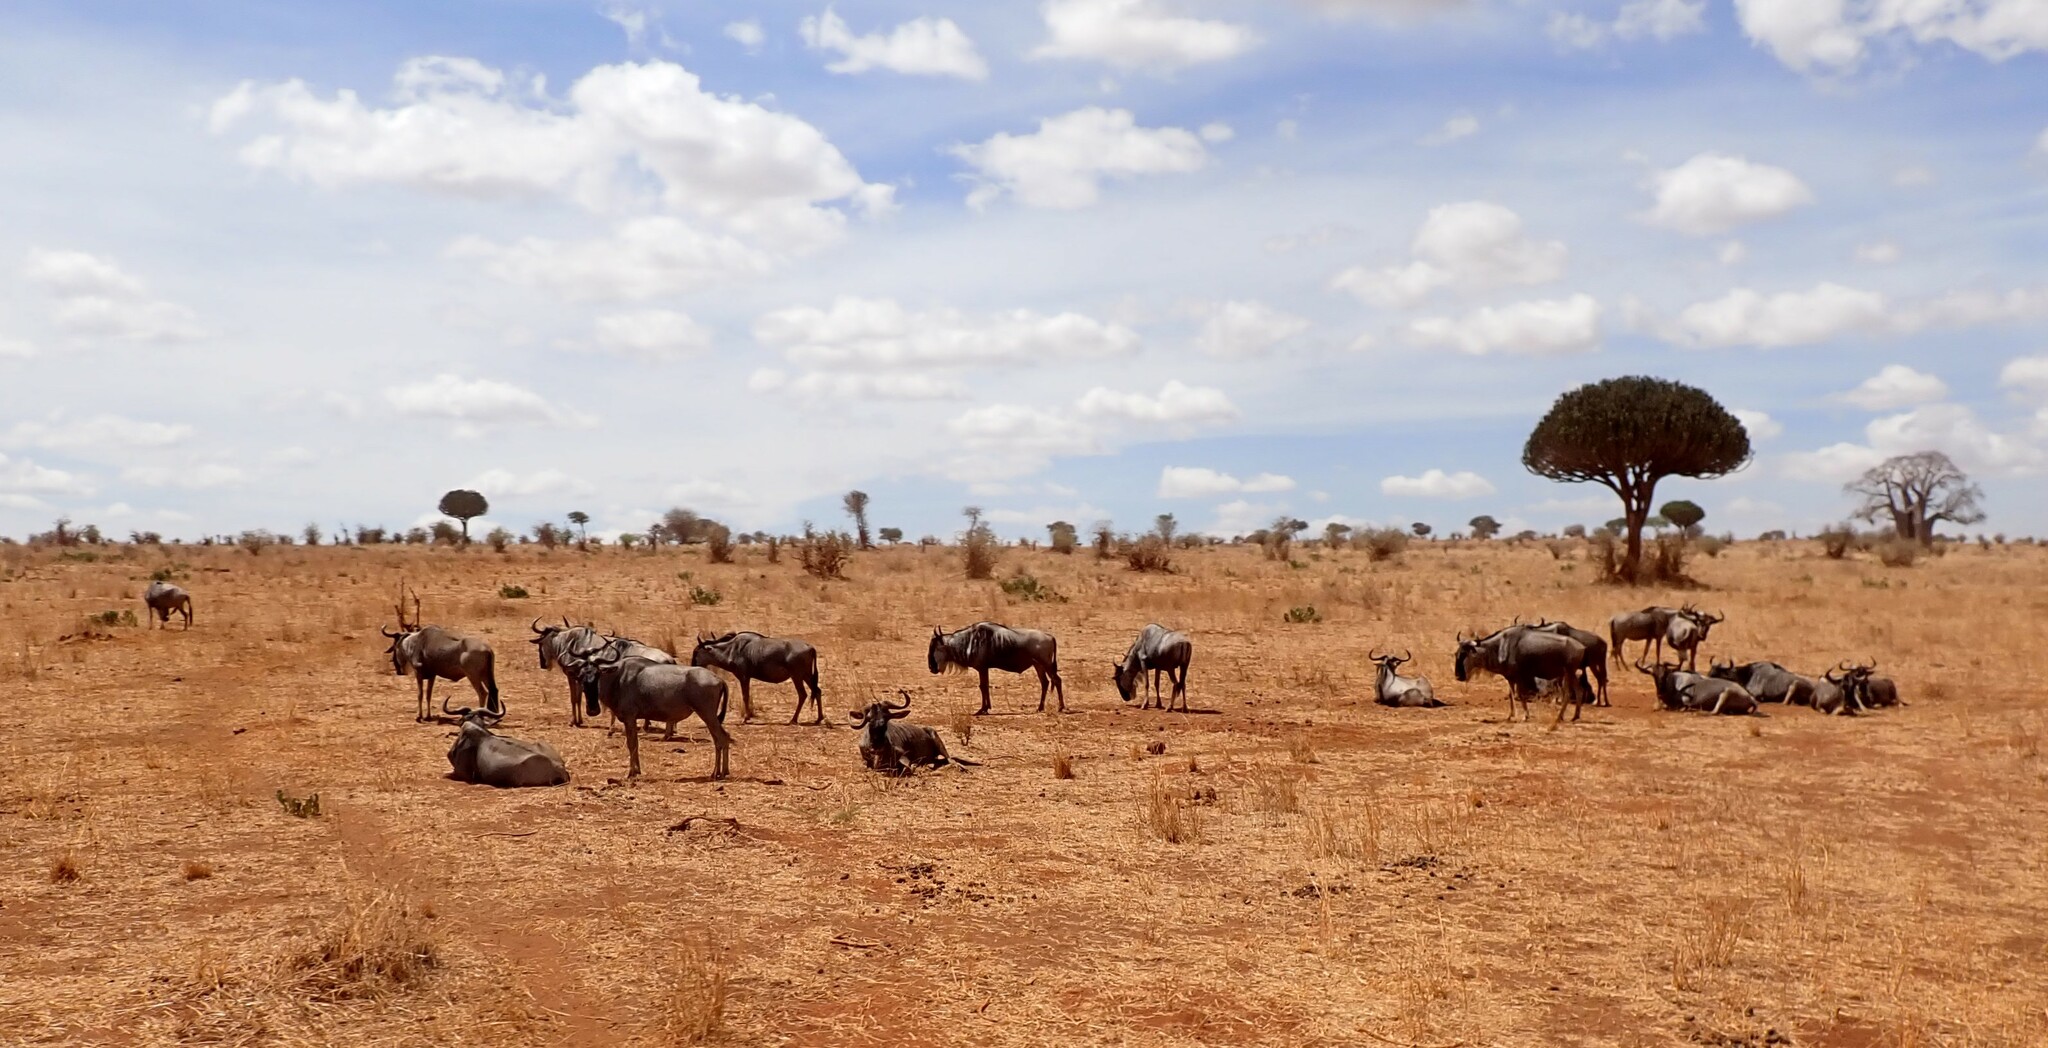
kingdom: Animalia
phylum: Chordata
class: Mammalia
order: Artiodactyla
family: Bovidae
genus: Connochaetes
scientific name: Connochaetes taurinus
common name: Blue wildebeest
